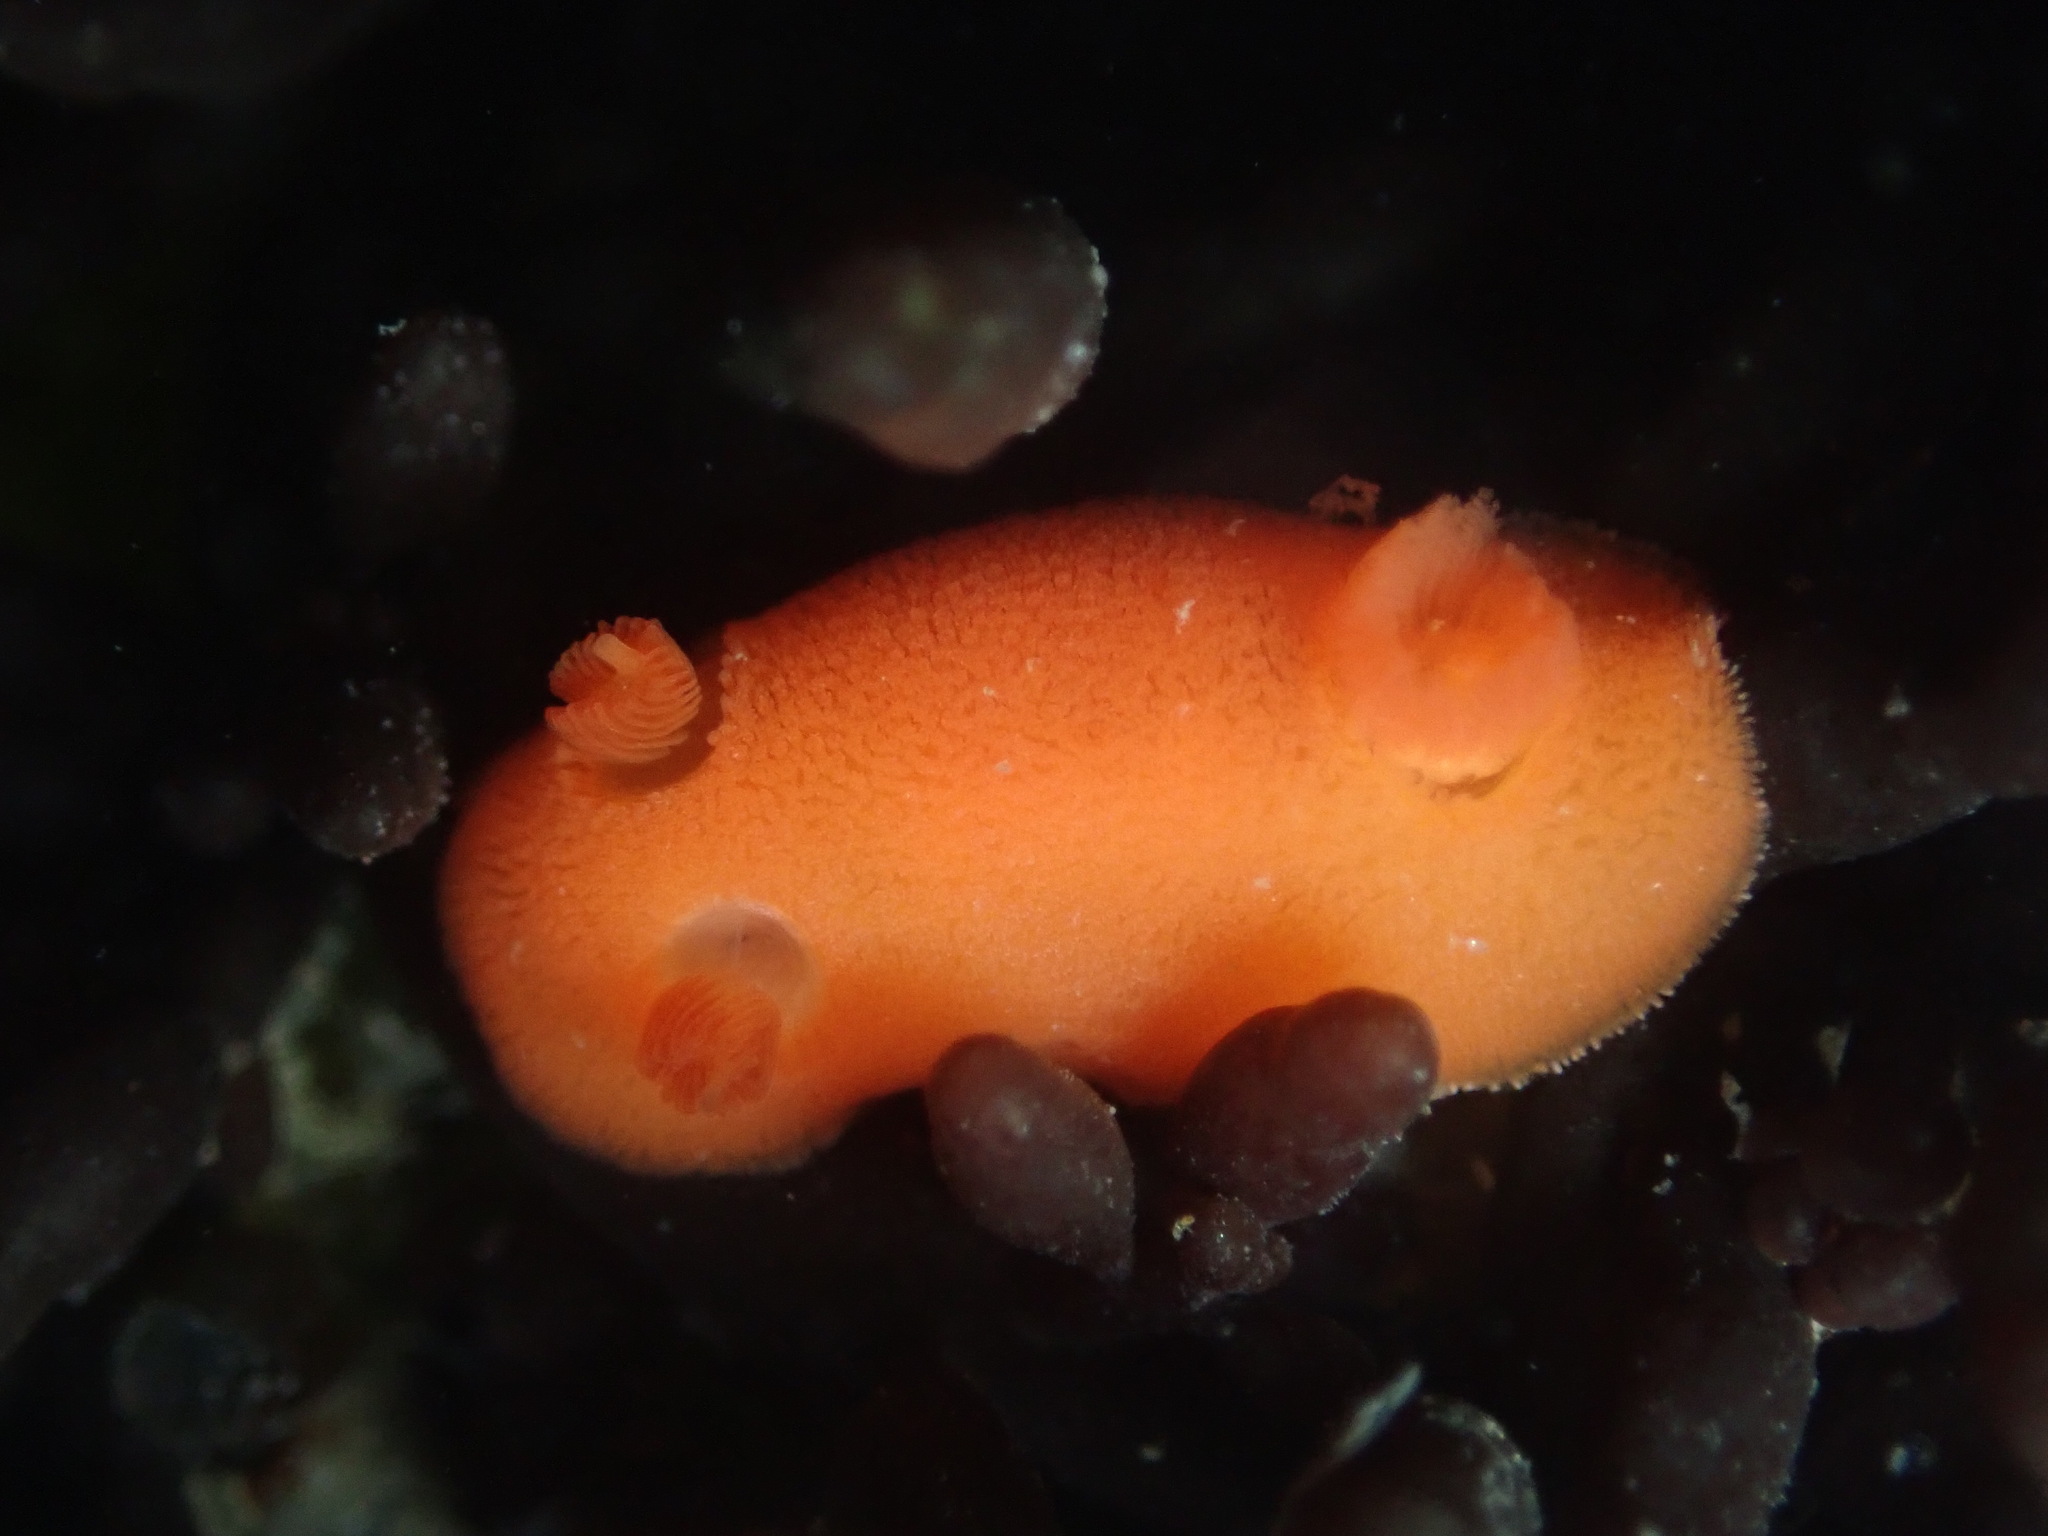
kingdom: Animalia
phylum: Mollusca
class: Gastropoda
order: Nudibranchia
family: Discodorididae
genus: Rostanga
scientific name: Rostanga pulchra
